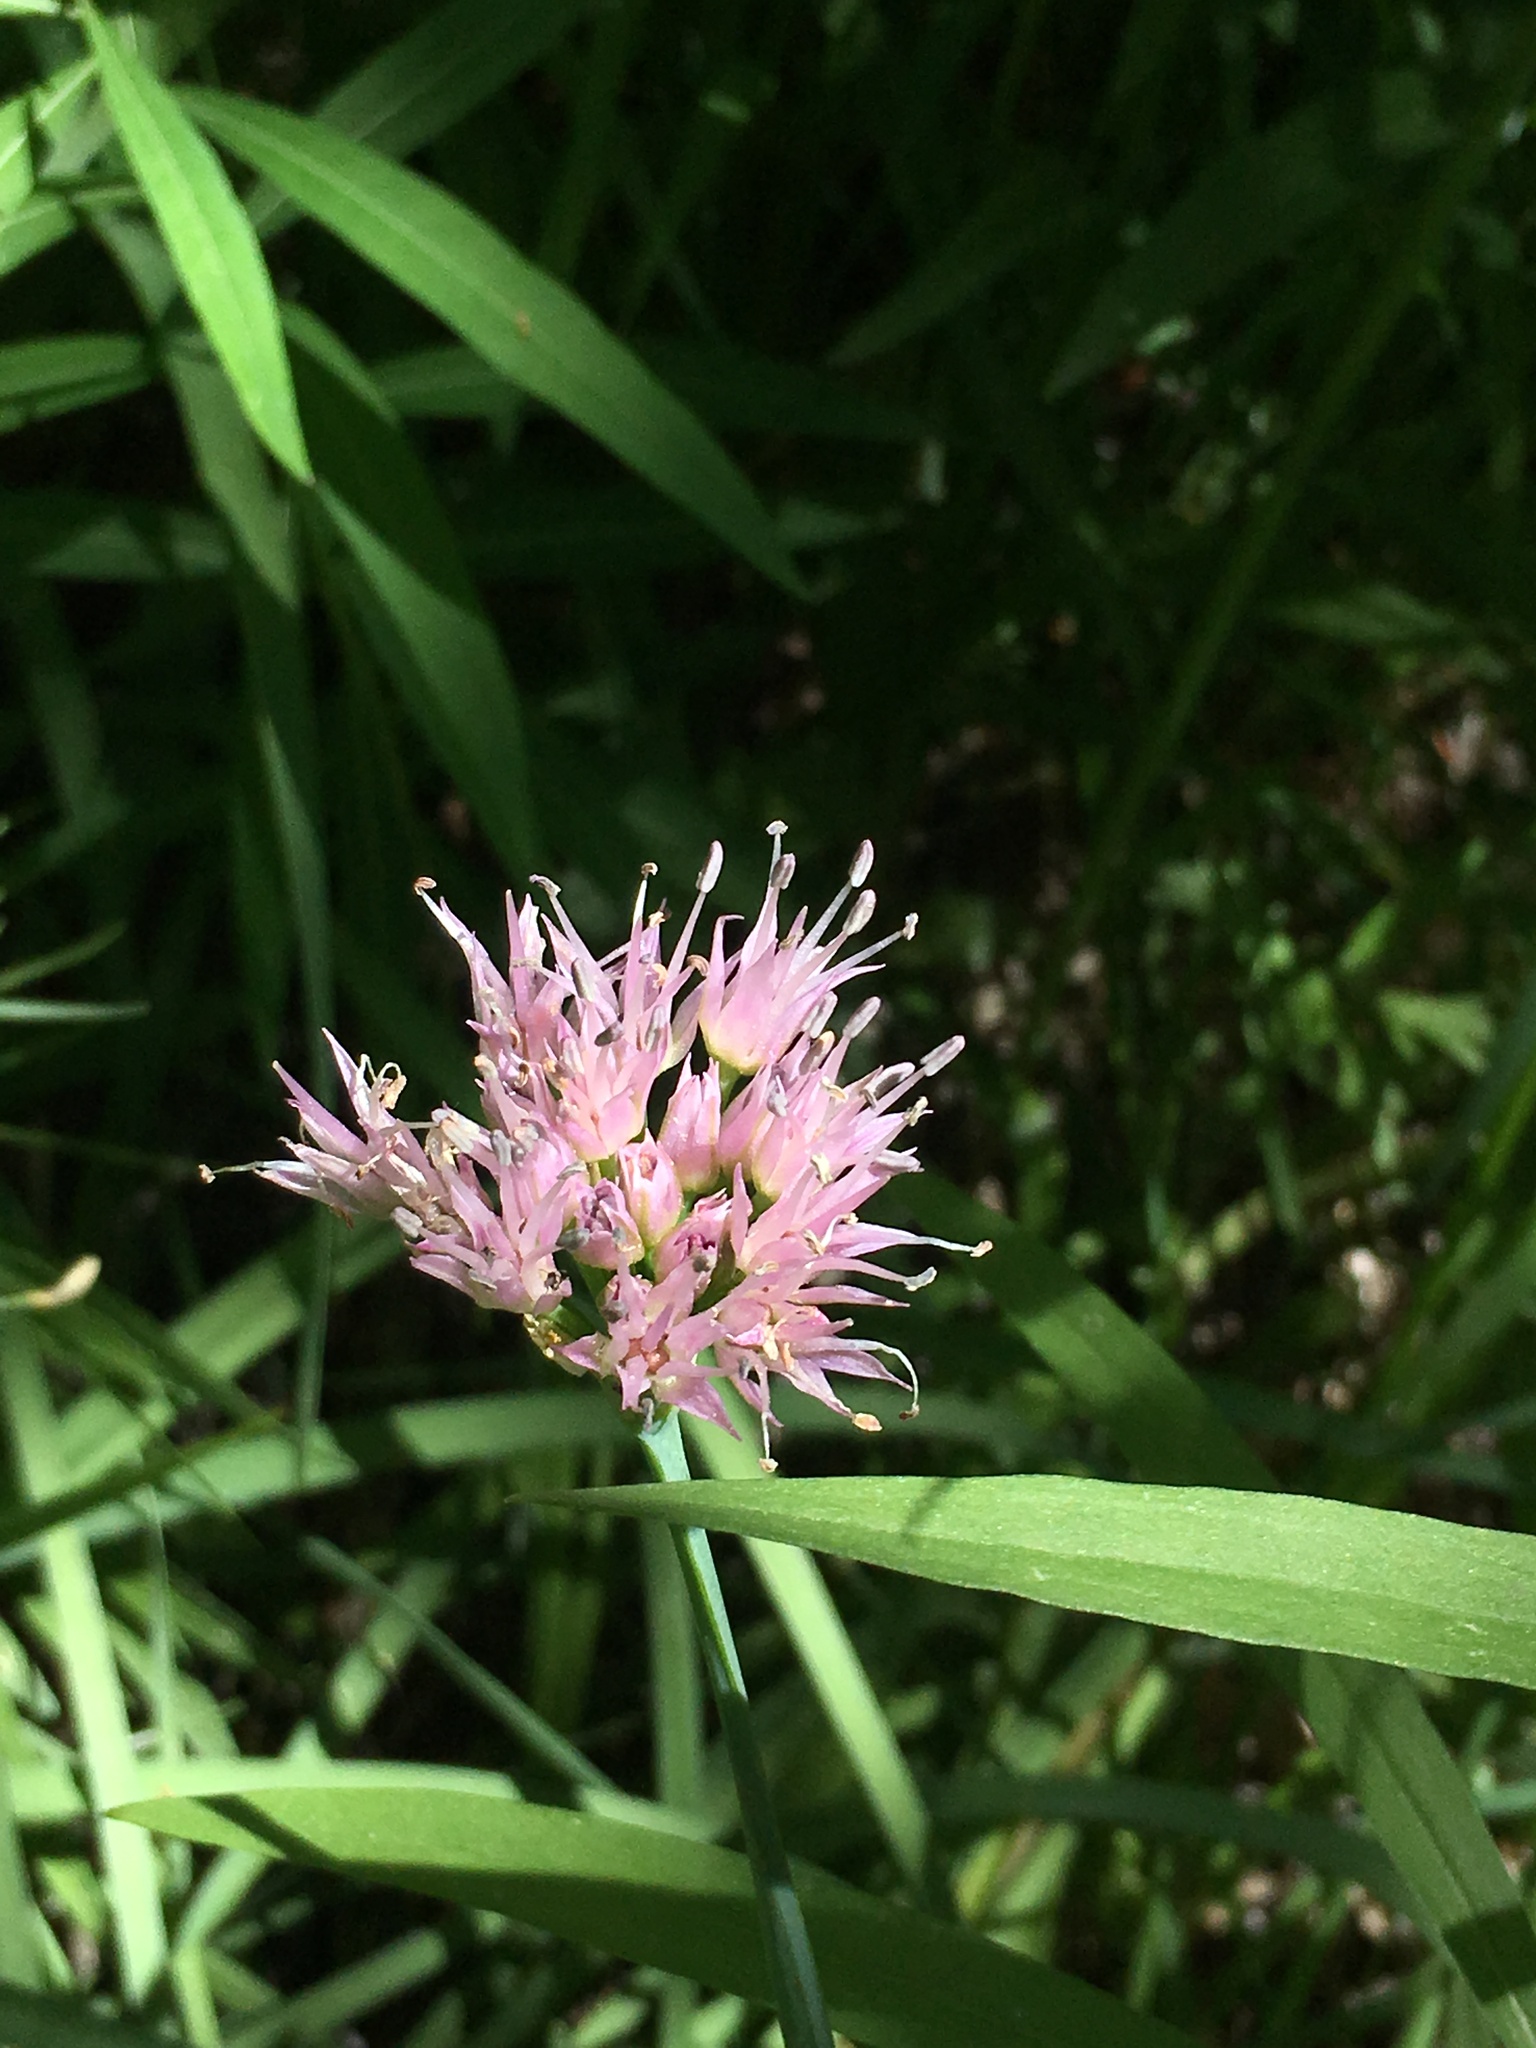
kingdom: Plantae
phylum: Tracheophyta
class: Liliopsida
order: Asparagales
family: Amaryllidaceae
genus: Allium
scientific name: Allium validum
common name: Pacific mountain onion
